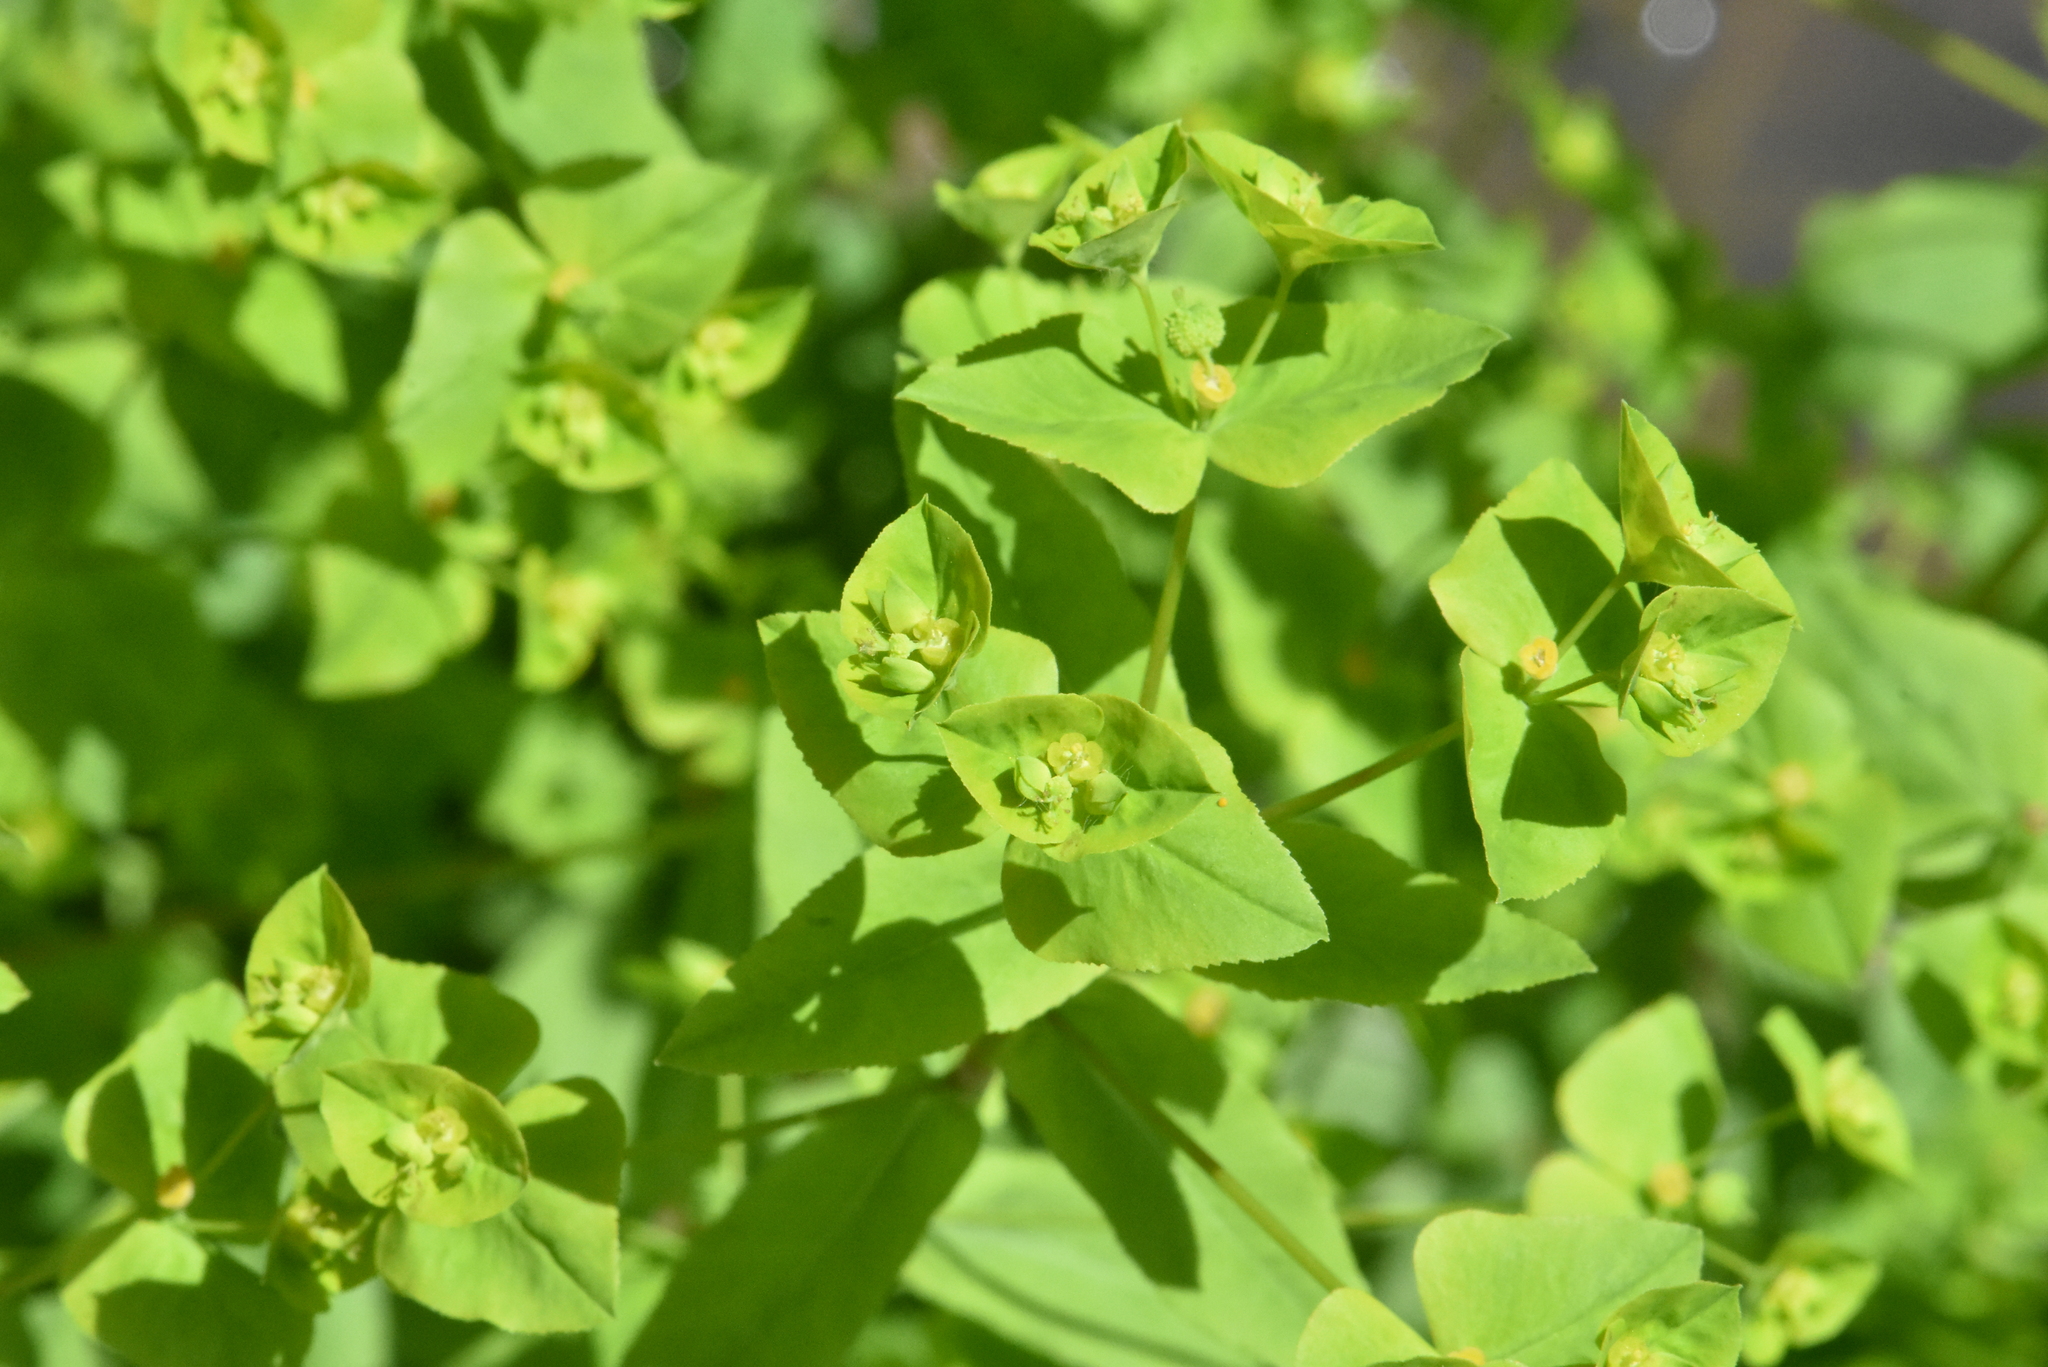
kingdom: Plantae
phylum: Tracheophyta
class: Magnoliopsida
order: Malpighiales
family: Euphorbiaceae
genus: Euphorbia
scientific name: Euphorbia stricta
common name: Upright spurge
